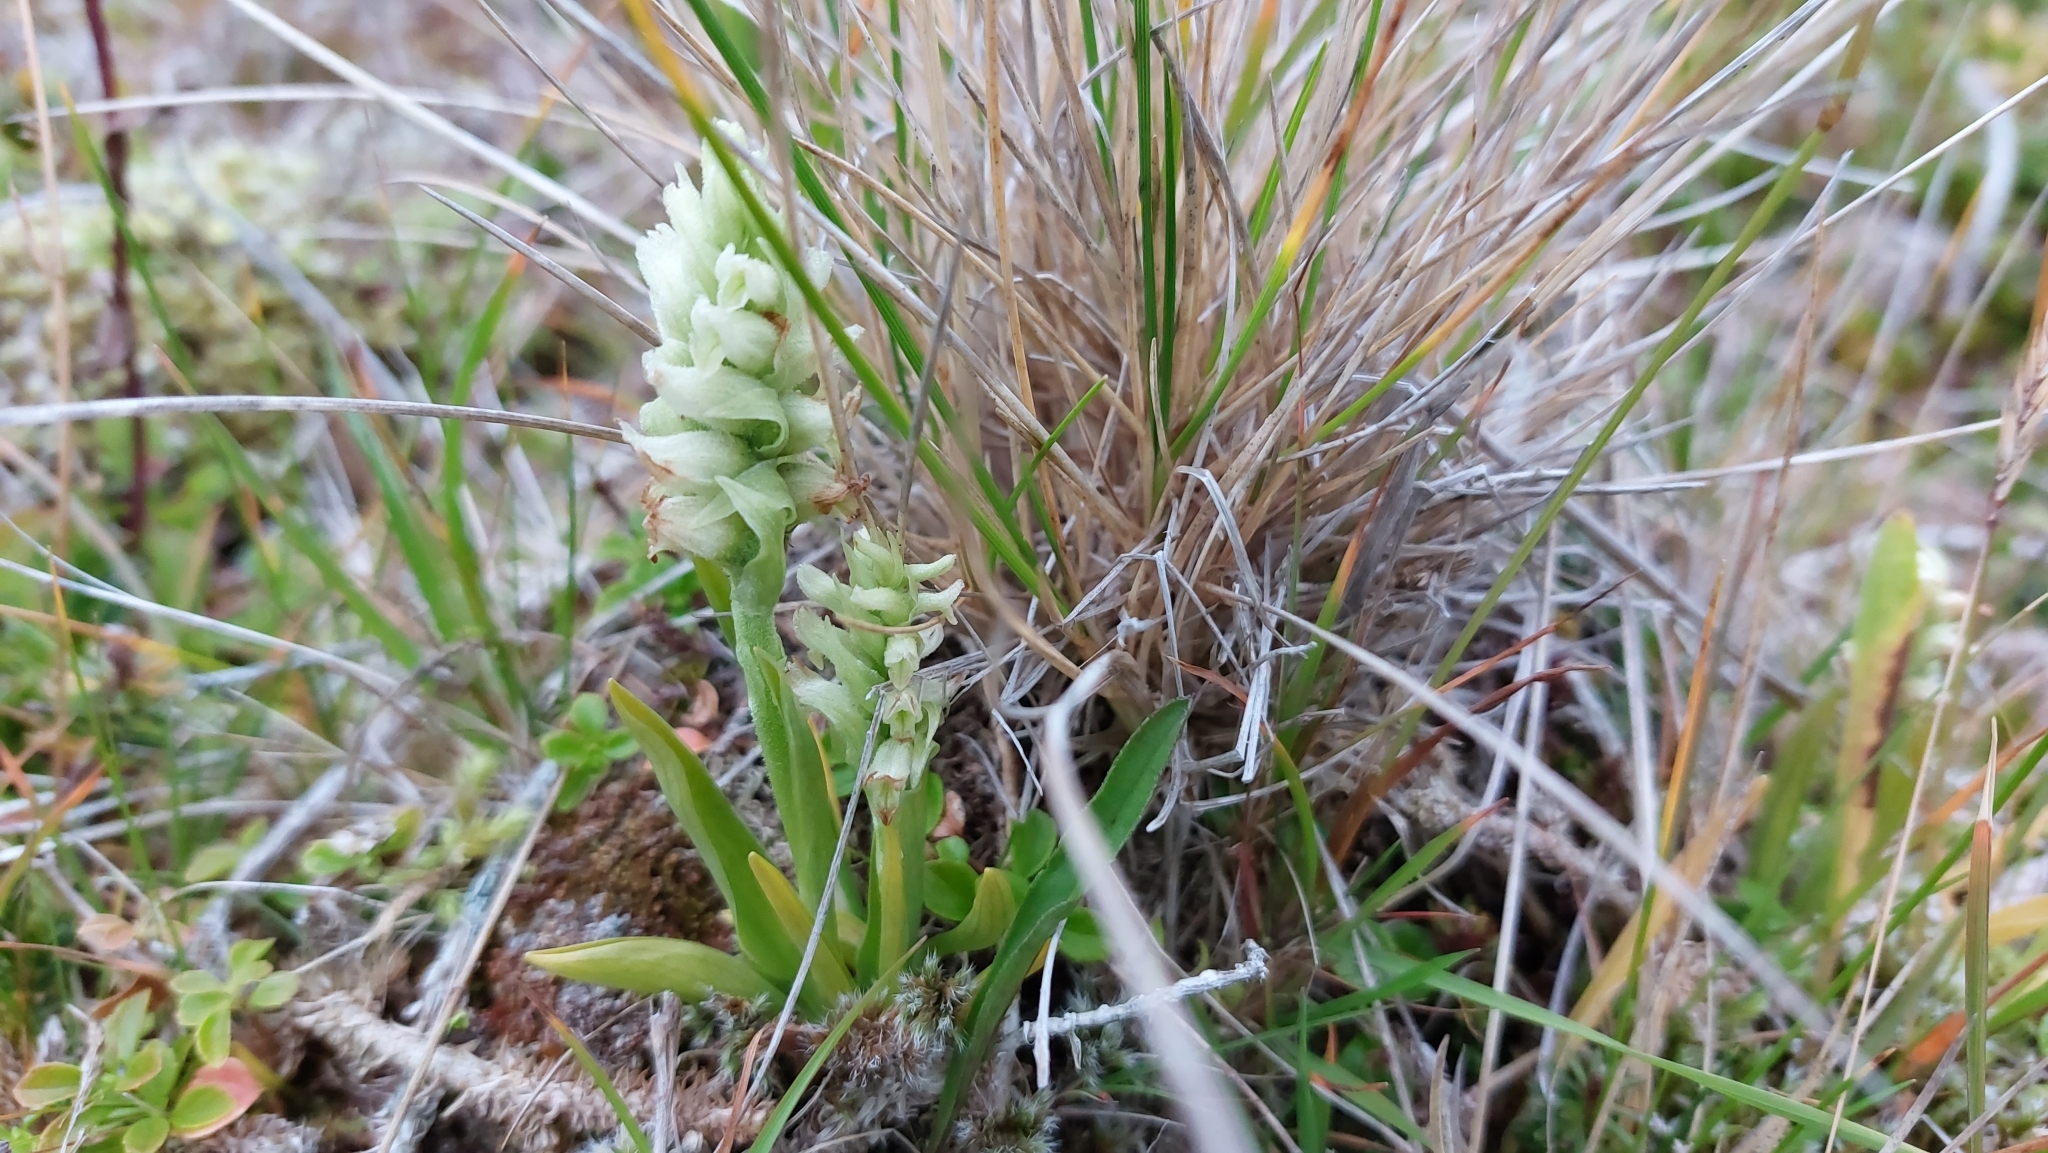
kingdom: Plantae
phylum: Tracheophyta
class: Liliopsida
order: Asparagales
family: Orchidaceae
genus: Spiranthes
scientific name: Spiranthes romanzoffiana
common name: Irish lady's-tresses
